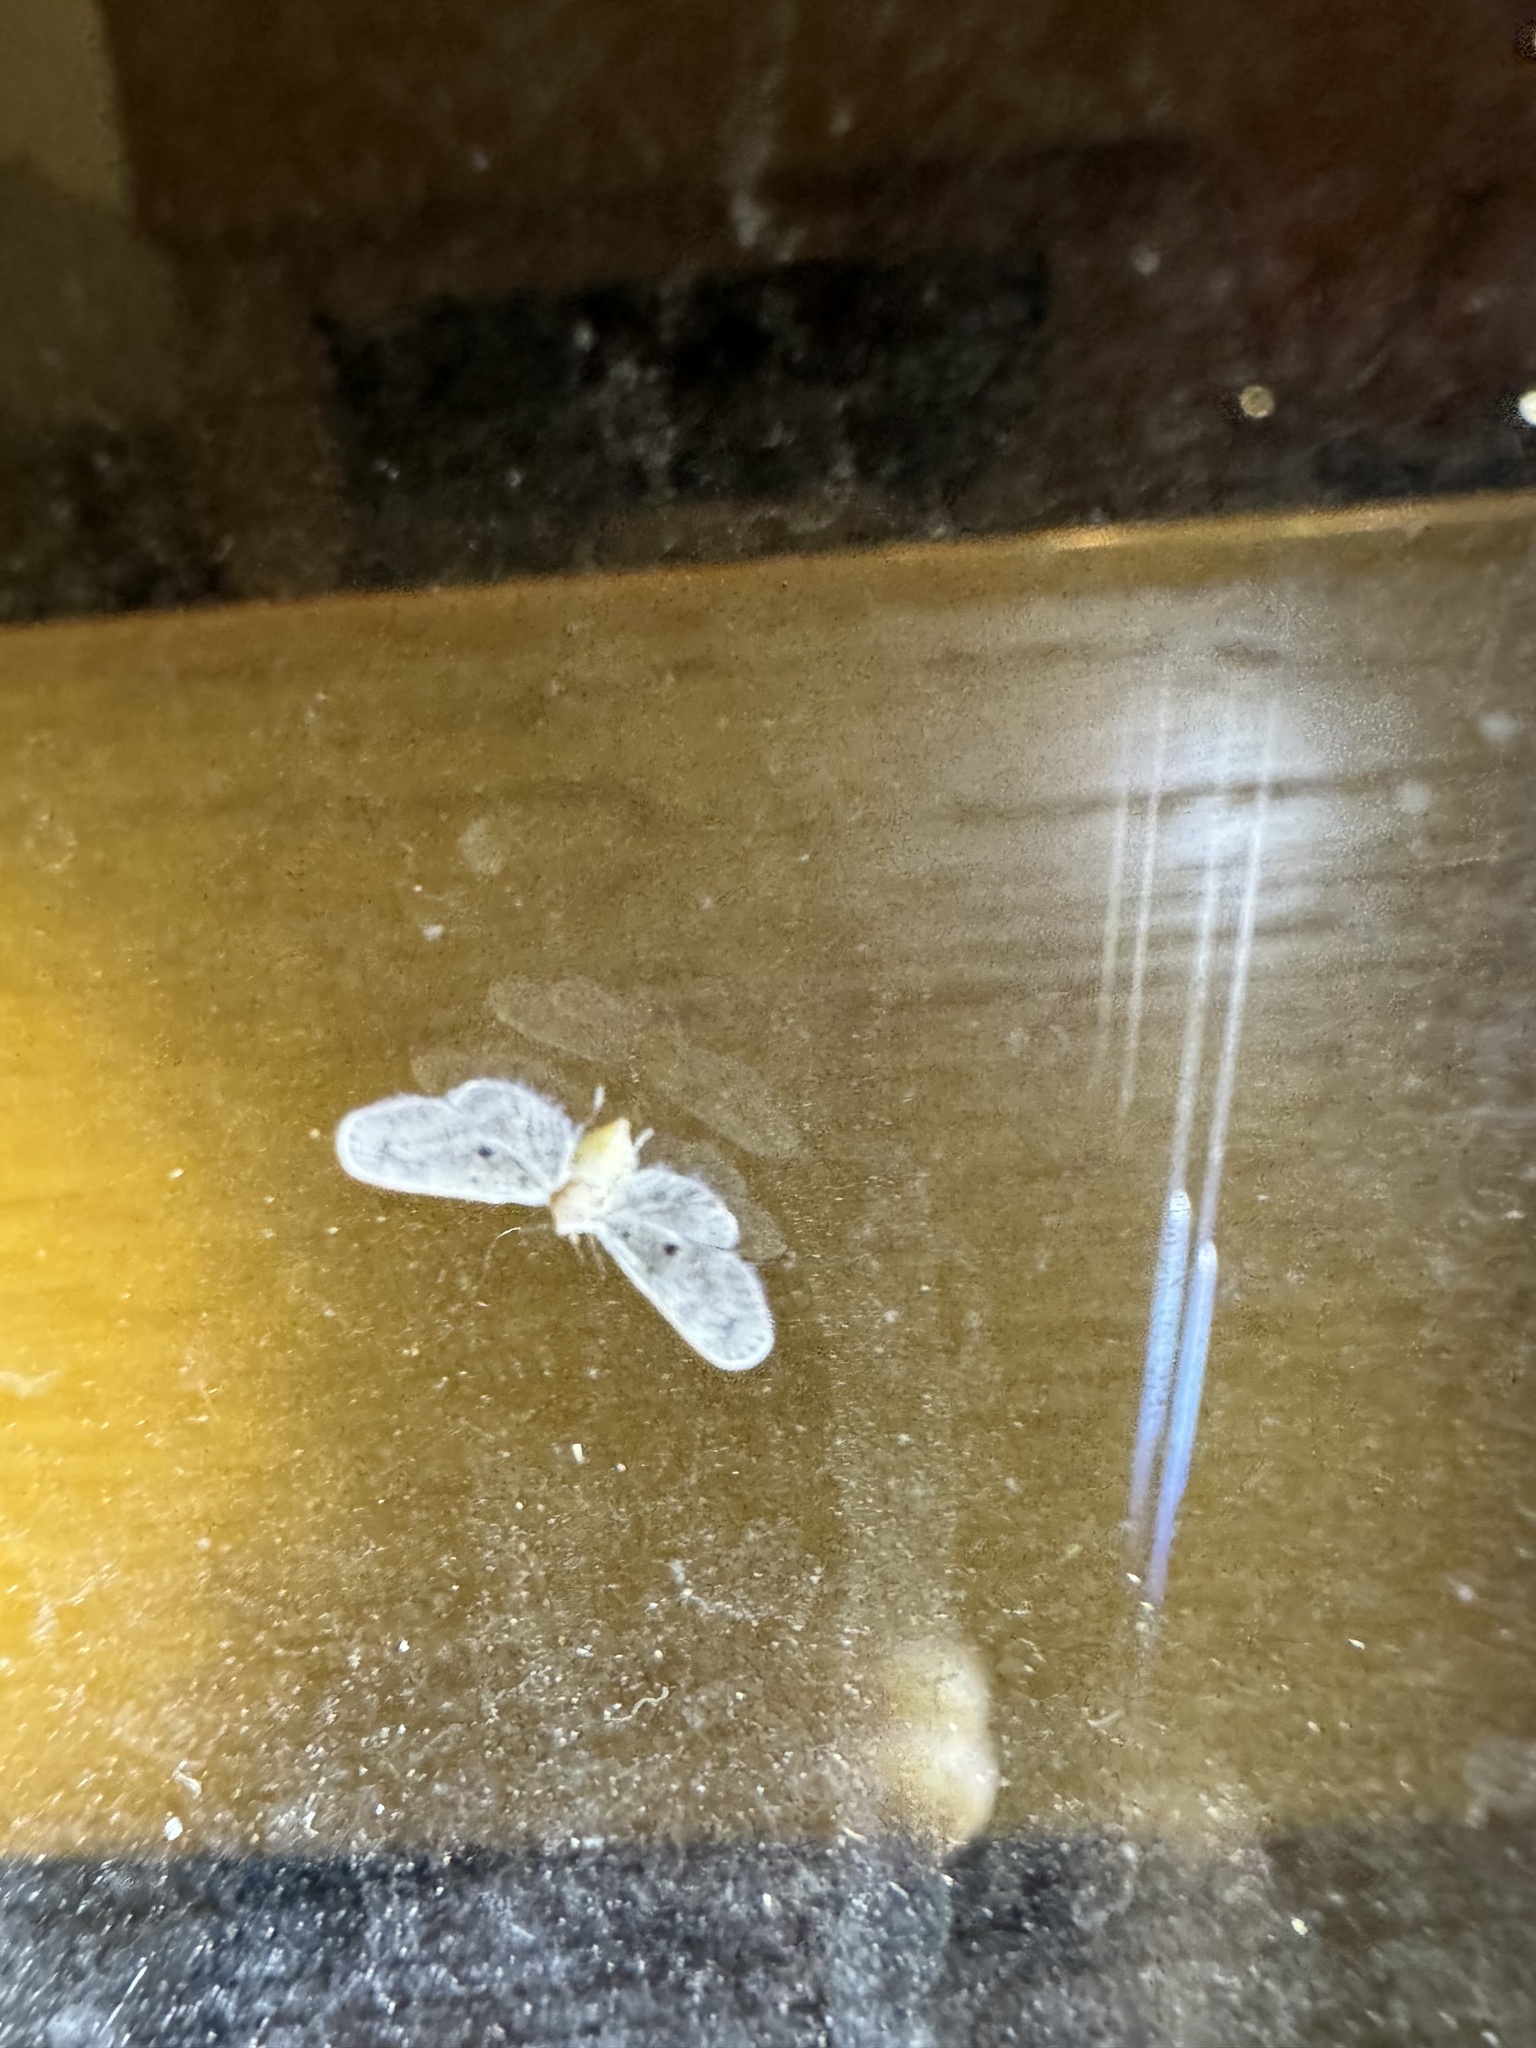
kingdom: Animalia
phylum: Arthropoda
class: Insecta
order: Hemiptera
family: Derbidae
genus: Dysimia
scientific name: Dysimia pseudomaculata
